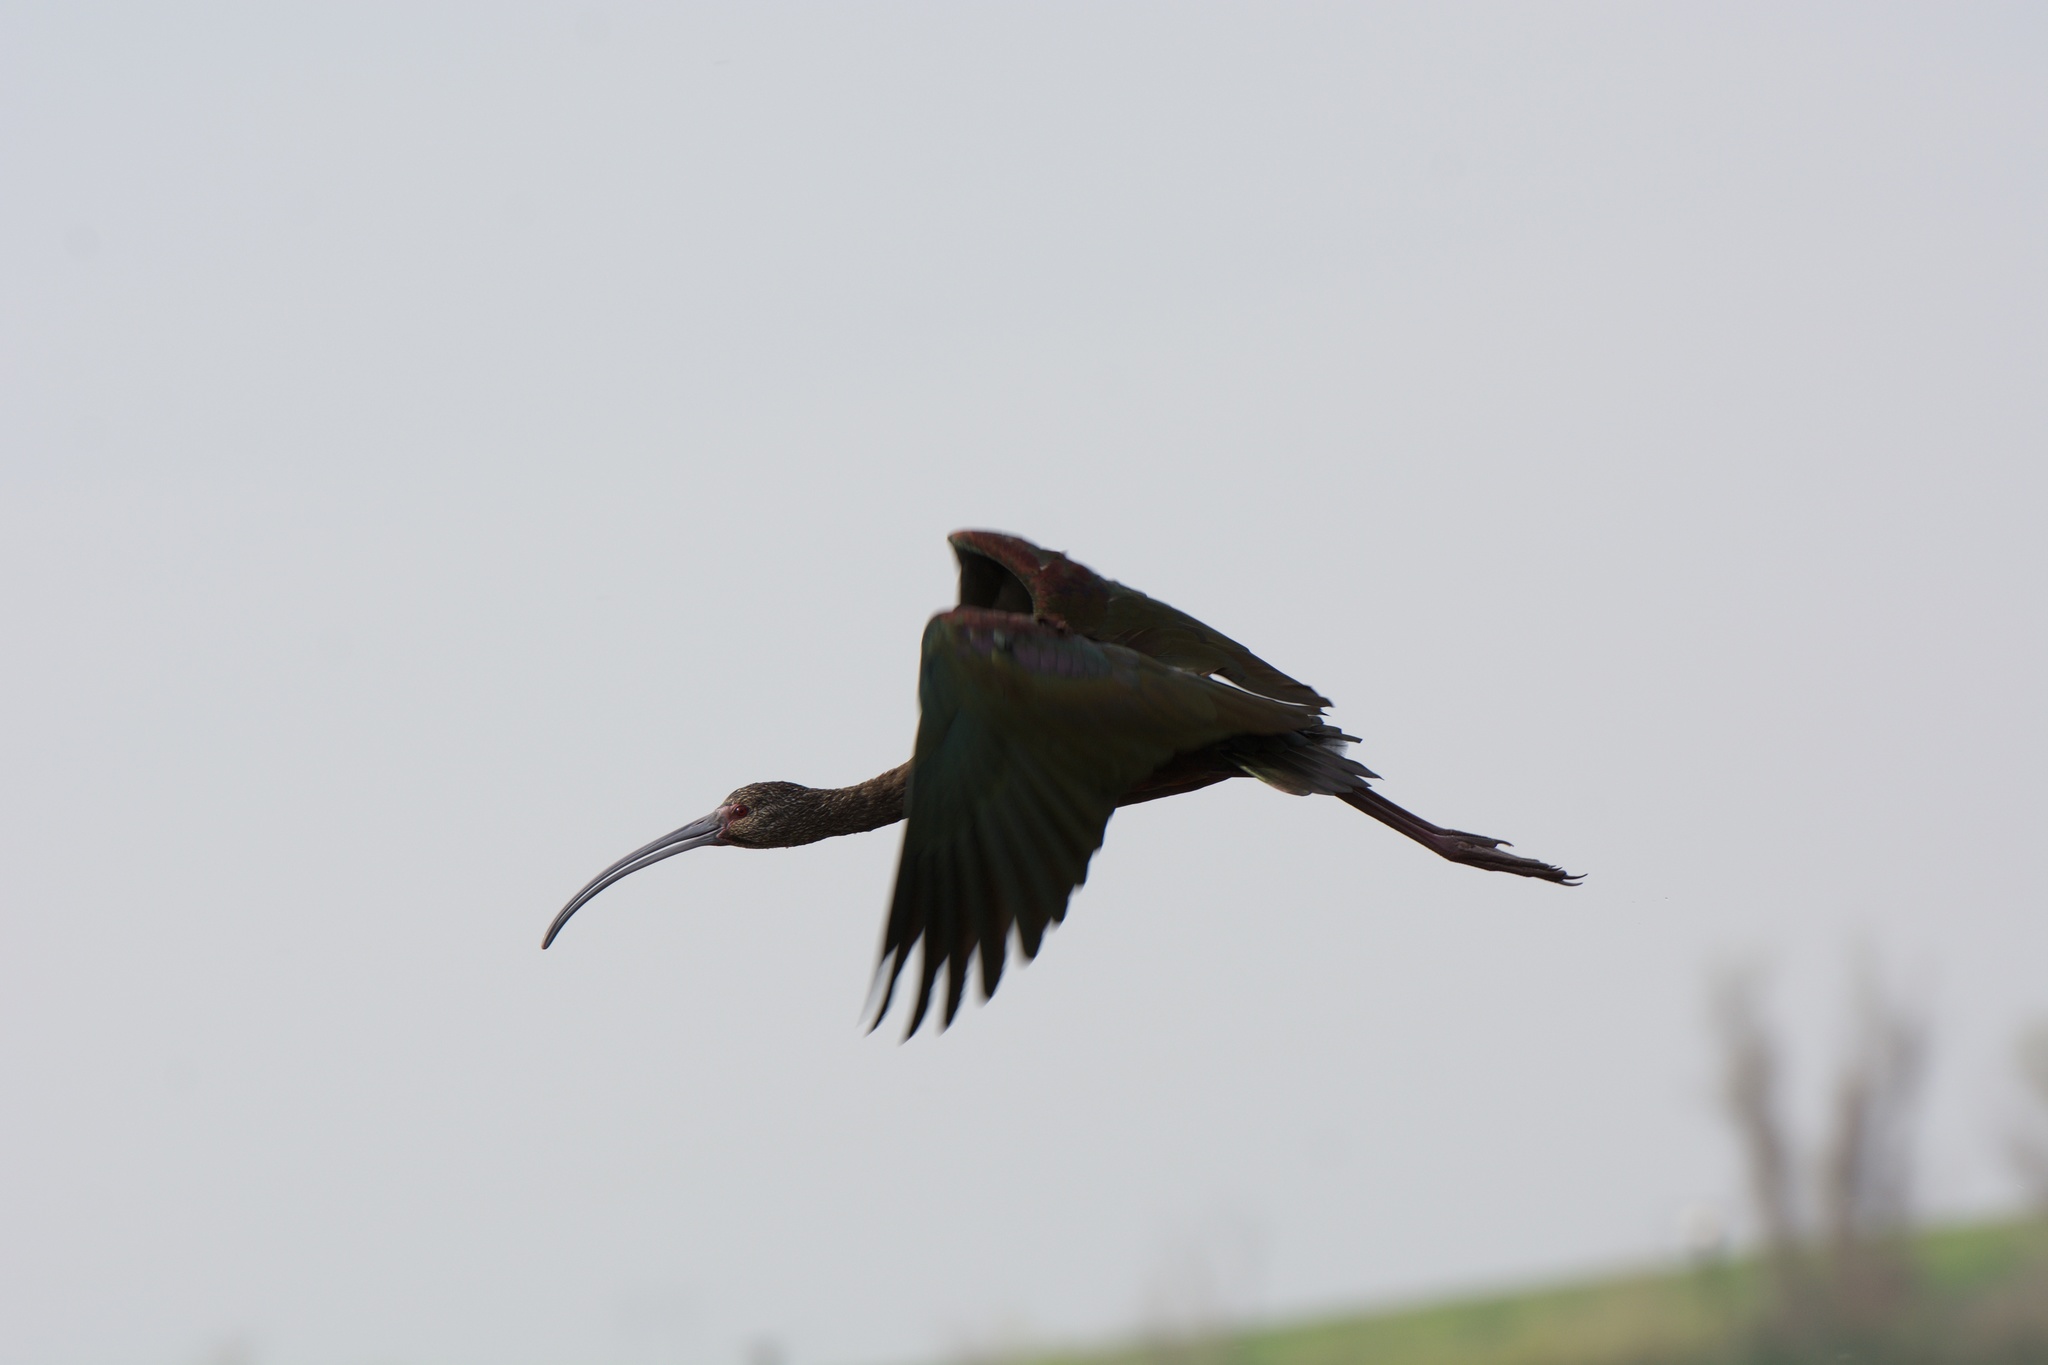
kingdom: Animalia
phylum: Chordata
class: Aves
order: Pelecaniformes
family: Threskiornithidae
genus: Plegadis
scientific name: Plegadis chihi
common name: White-faced ibis
